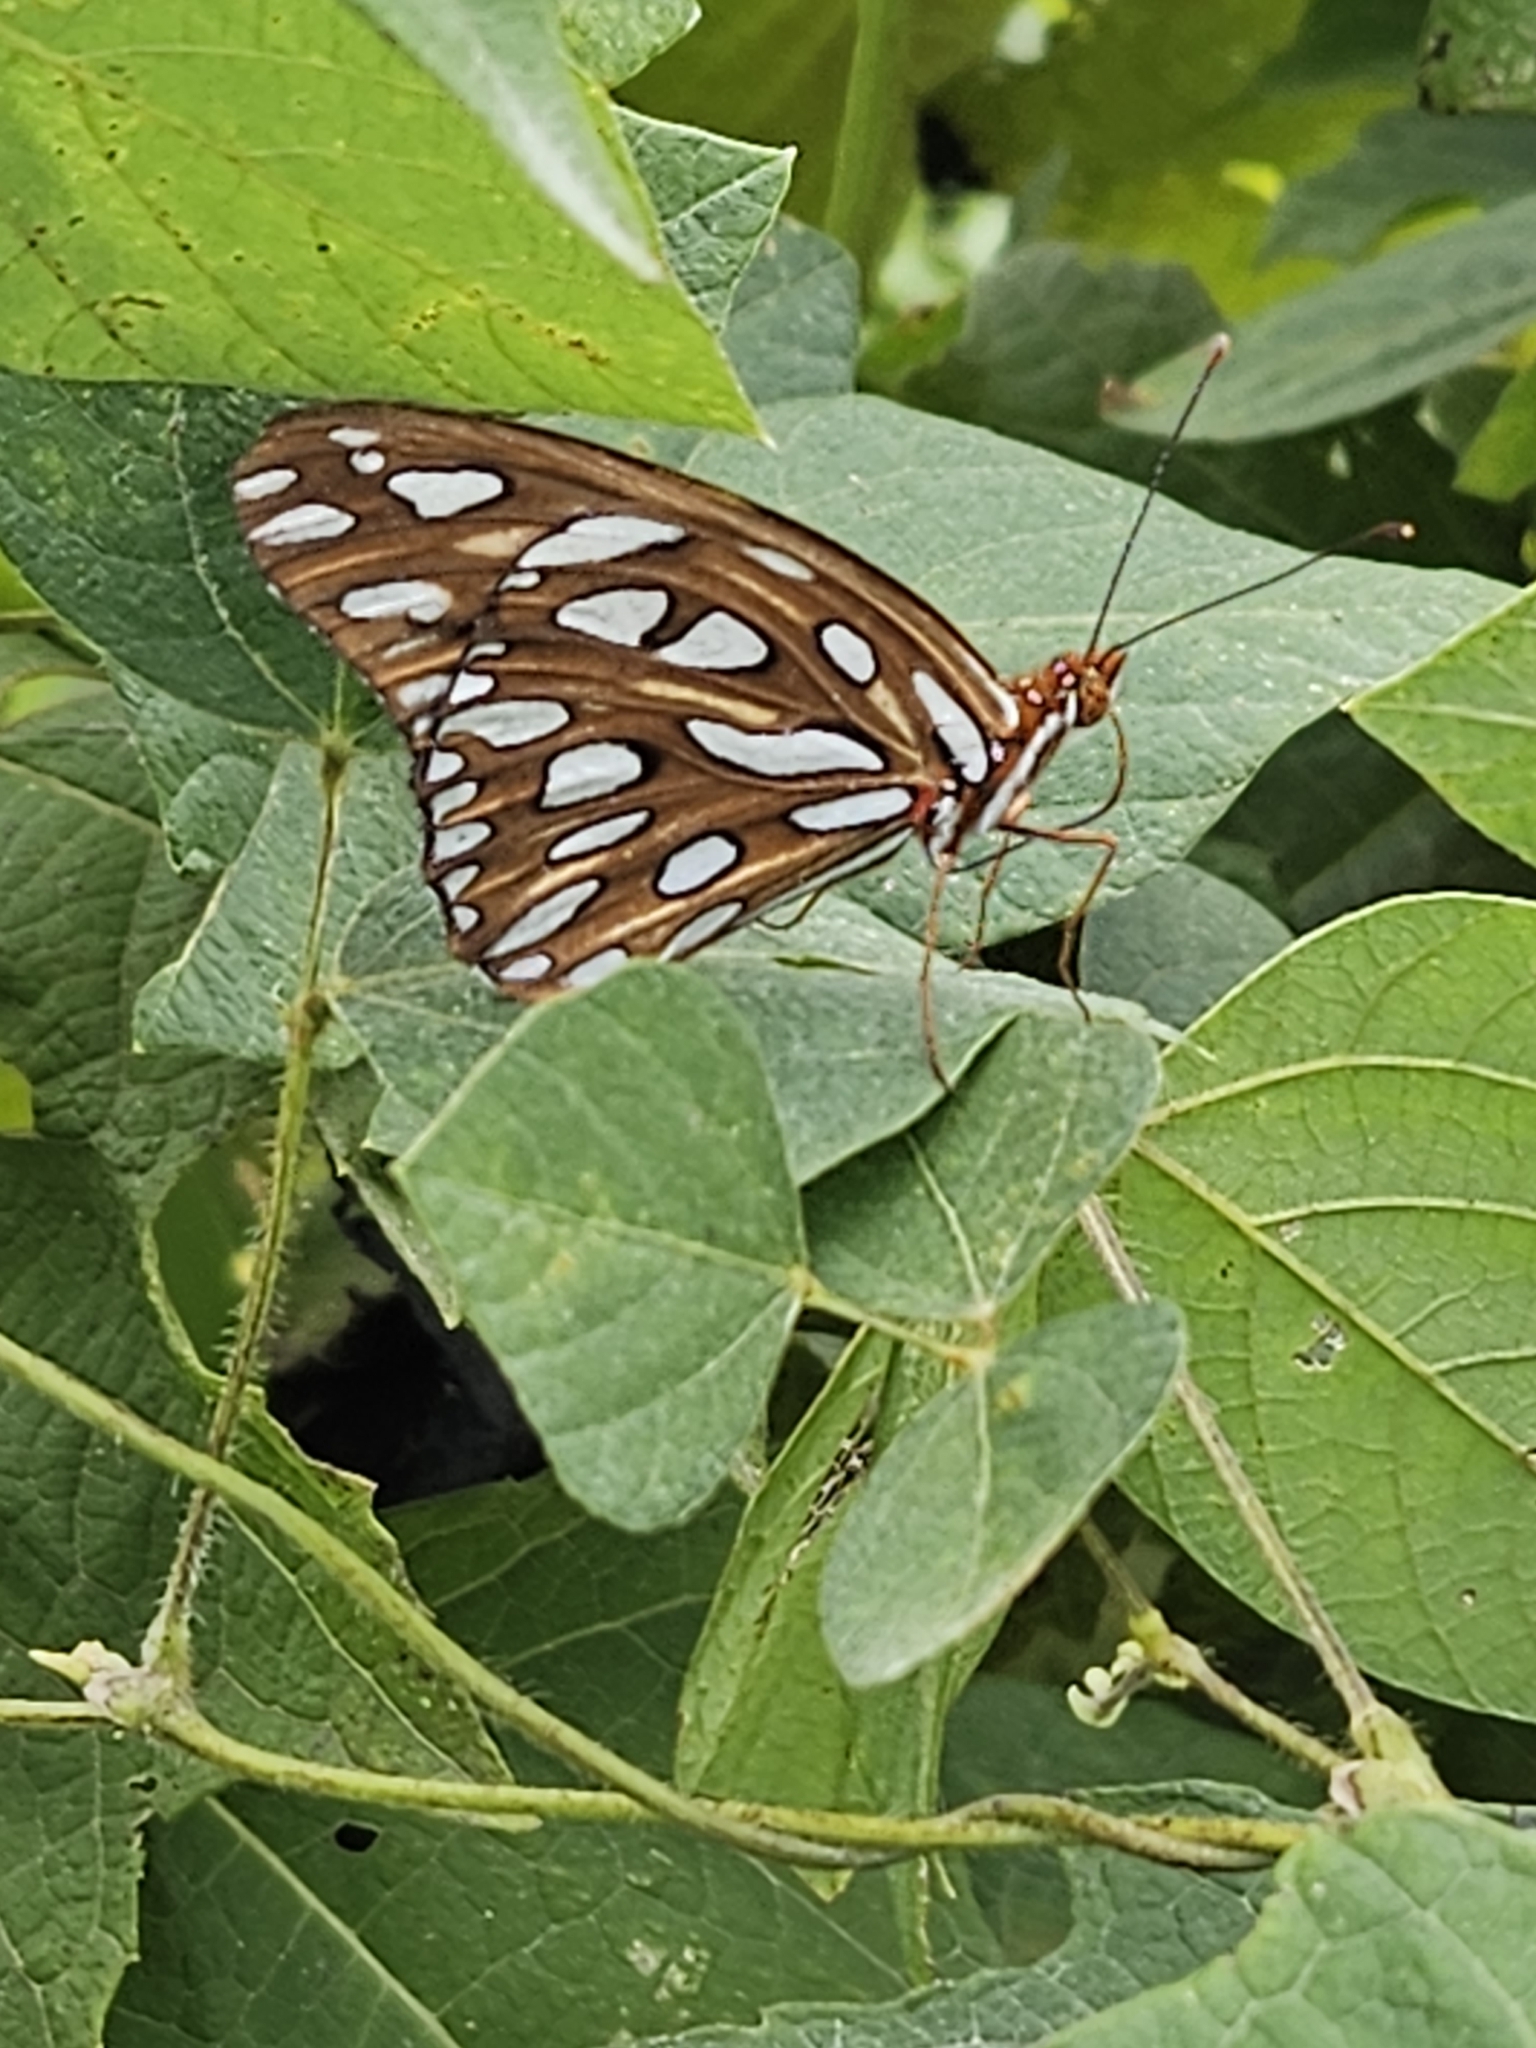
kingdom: Animalia
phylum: Arthropoda
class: Insecta
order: Lepidoptera
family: Nymphalidae
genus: Dione
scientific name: Dione vanillae
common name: Gulf fritillary
